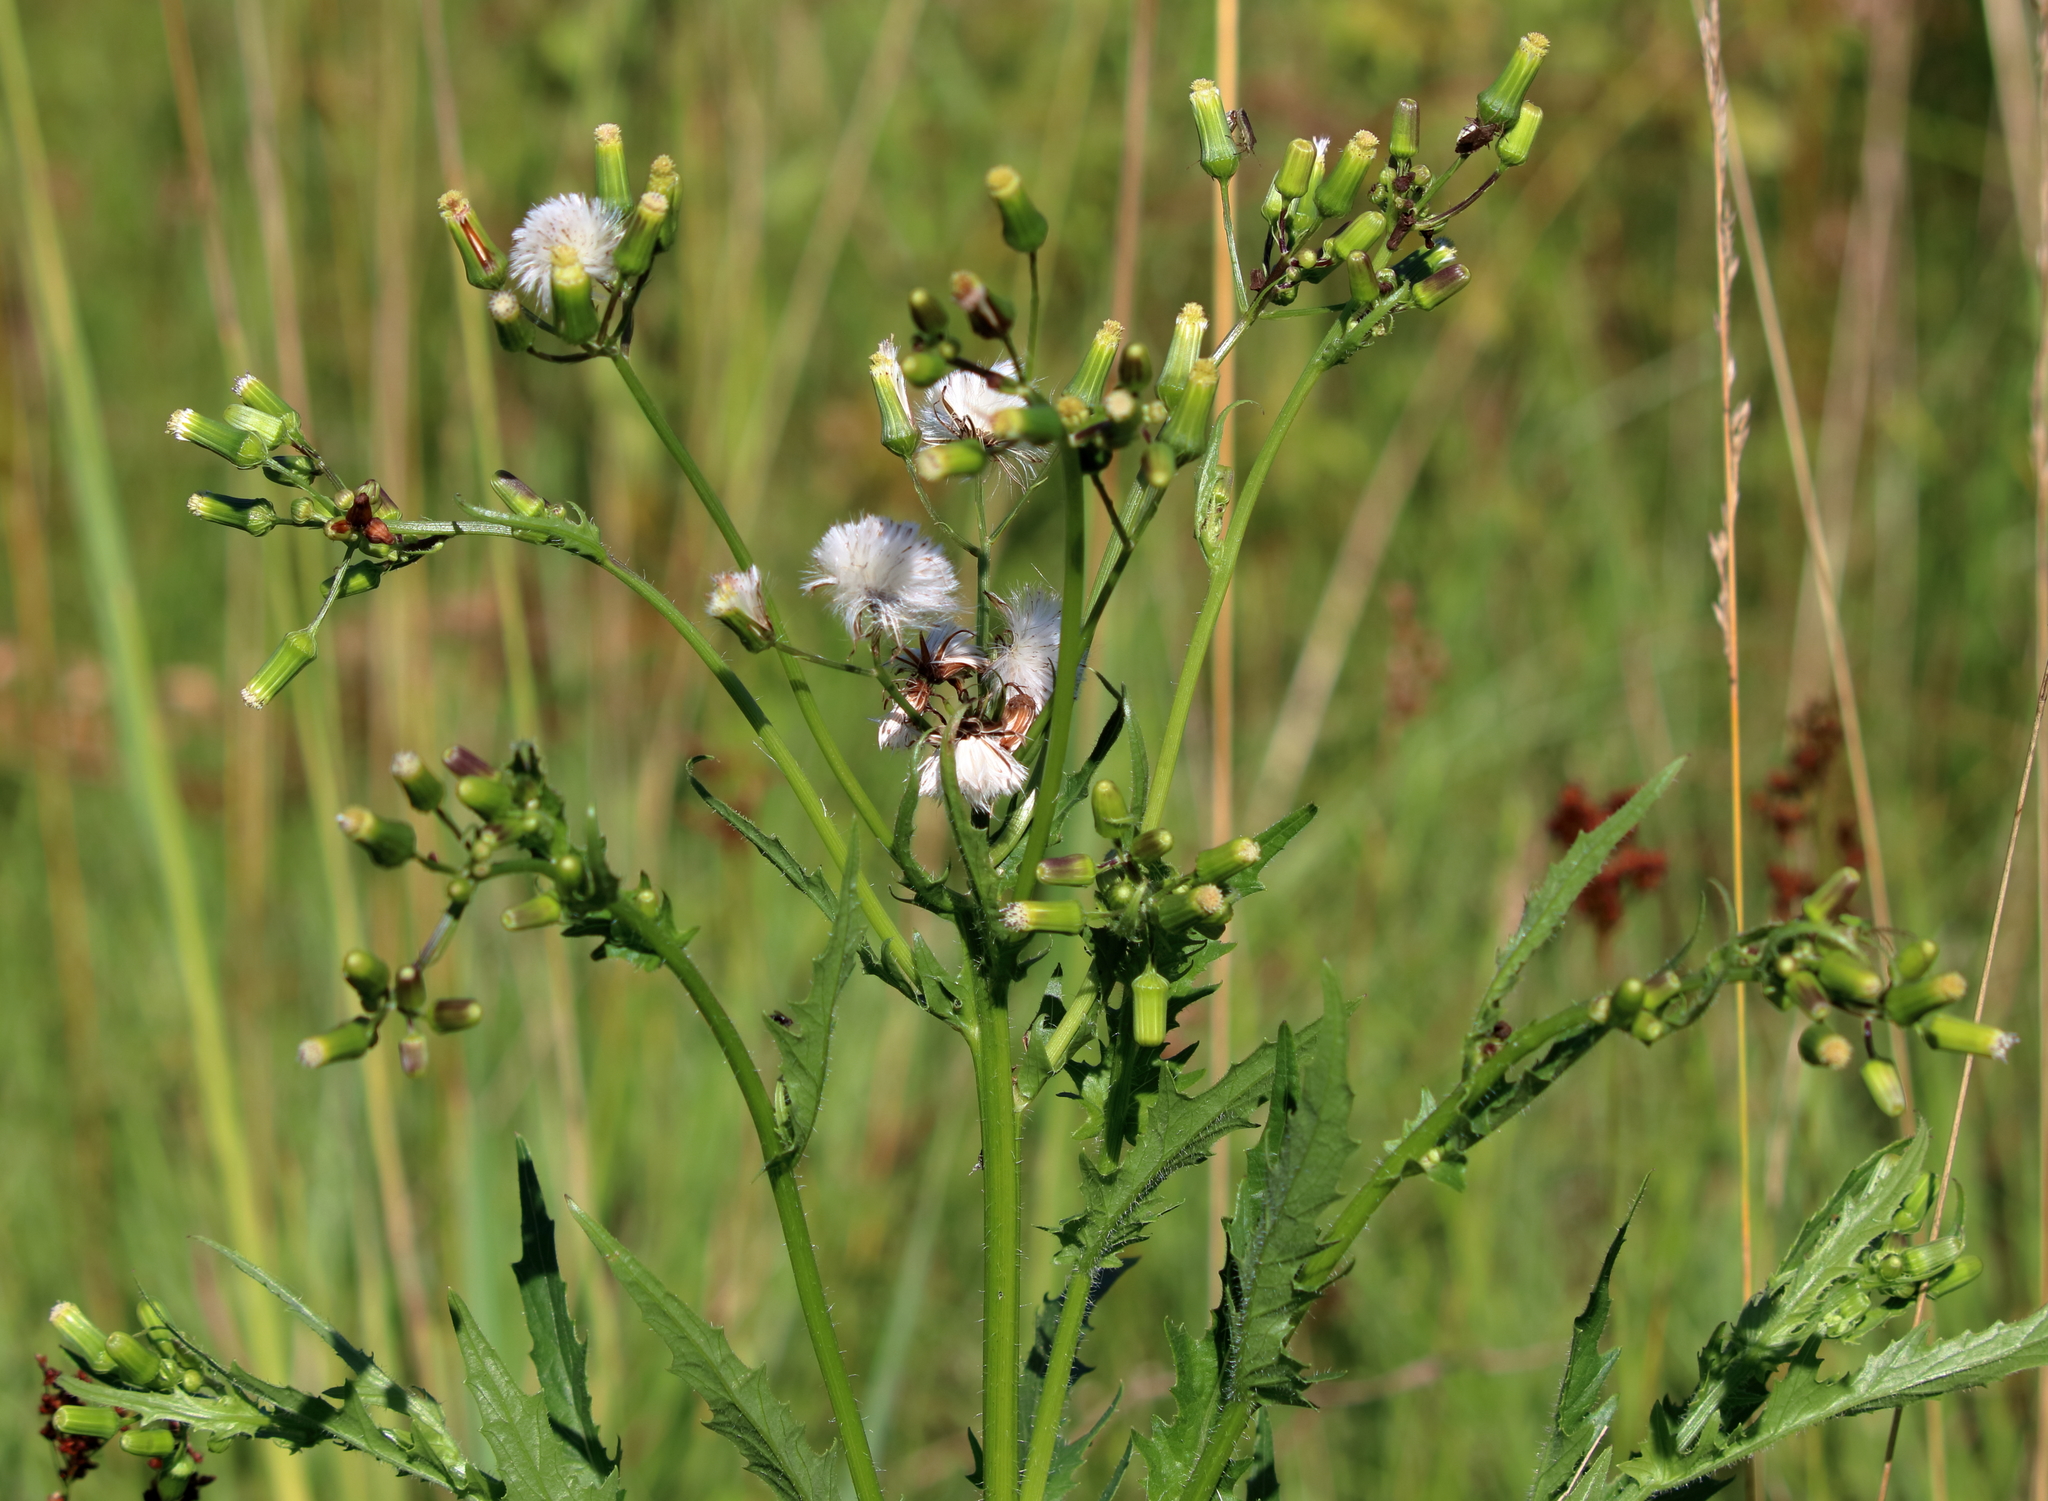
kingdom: Plantae
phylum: Tracheophyta
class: Magnoliopsida
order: Asterales
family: Asteraceae
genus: Erechtites
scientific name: Erechtites hieraciifolius
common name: American burnweed
